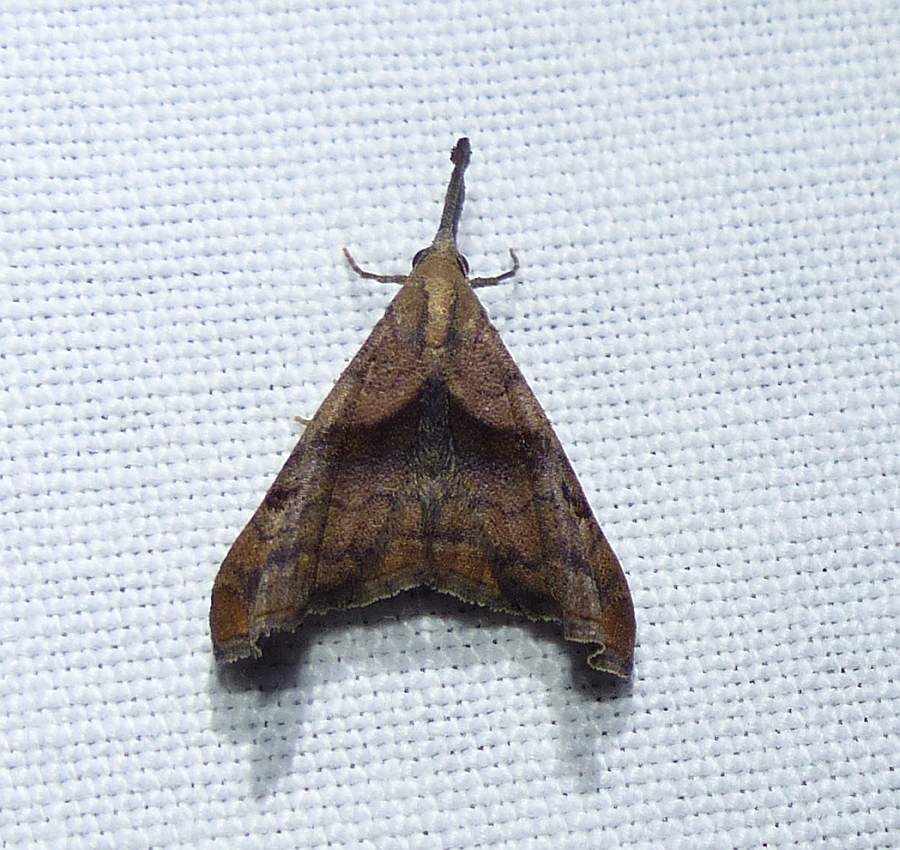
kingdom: Animalia
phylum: Arthropoda
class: Insecta
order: Lepidoptera
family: Erebidae
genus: Palthis
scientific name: Palthis angulalis
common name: Dark-spotted palthis moth
